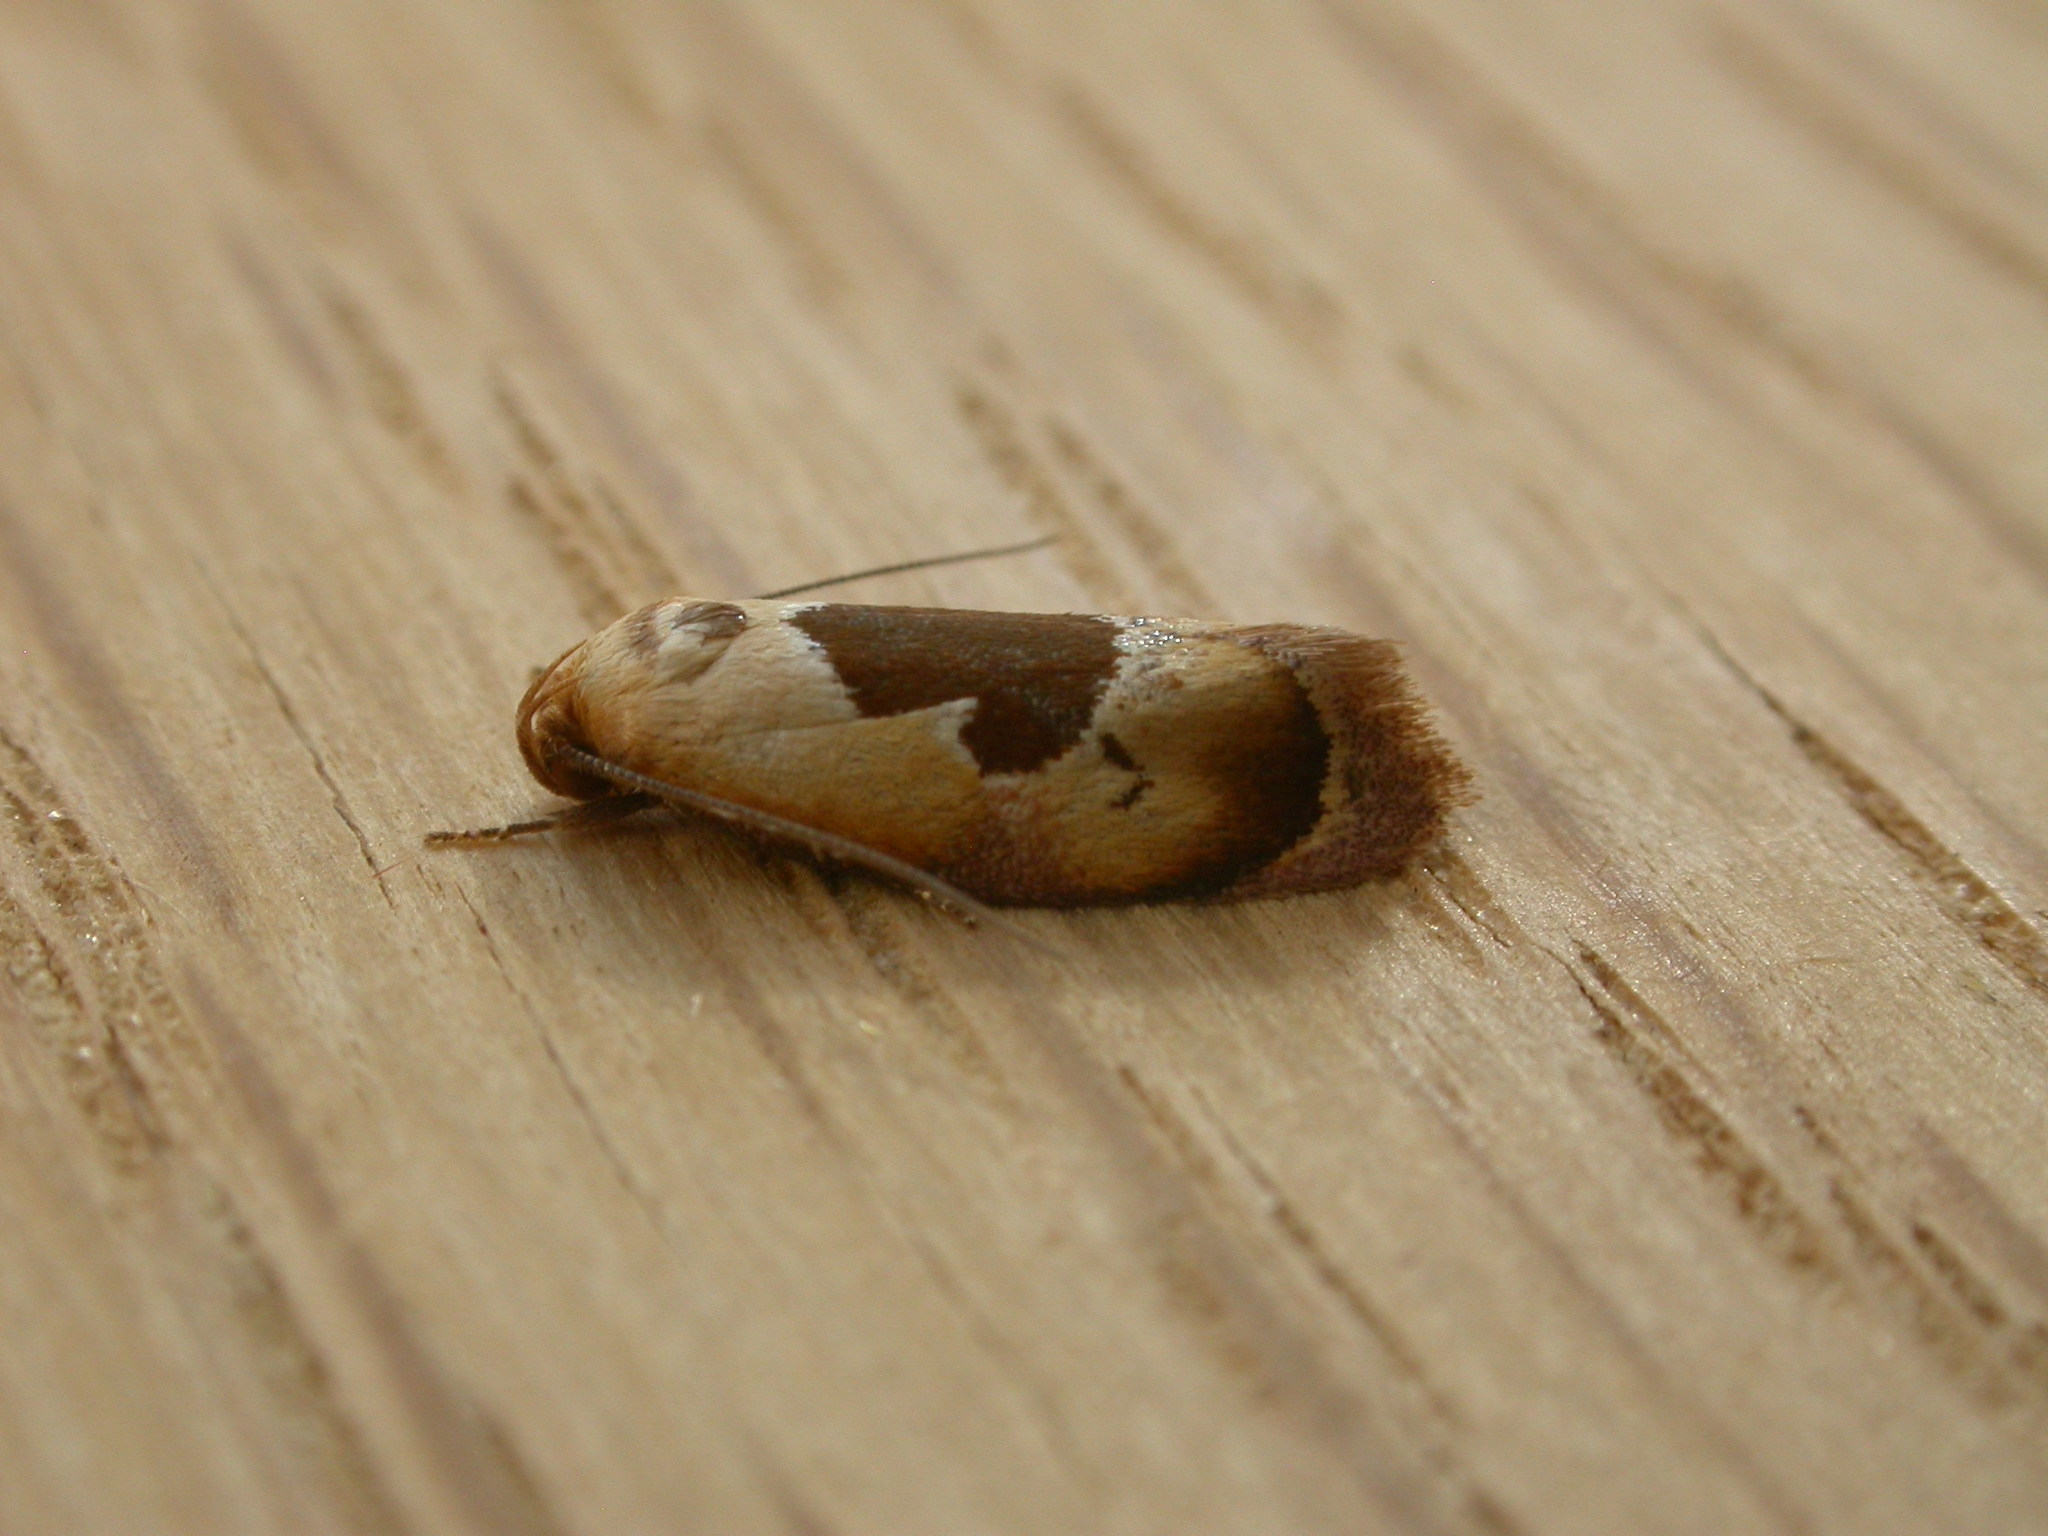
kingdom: Animalia
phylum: Arthropoda
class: Insecta
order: Lepidoptera
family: Oecophoridae
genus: Hoplomorpha
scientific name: Hoplomorpha camelaea
